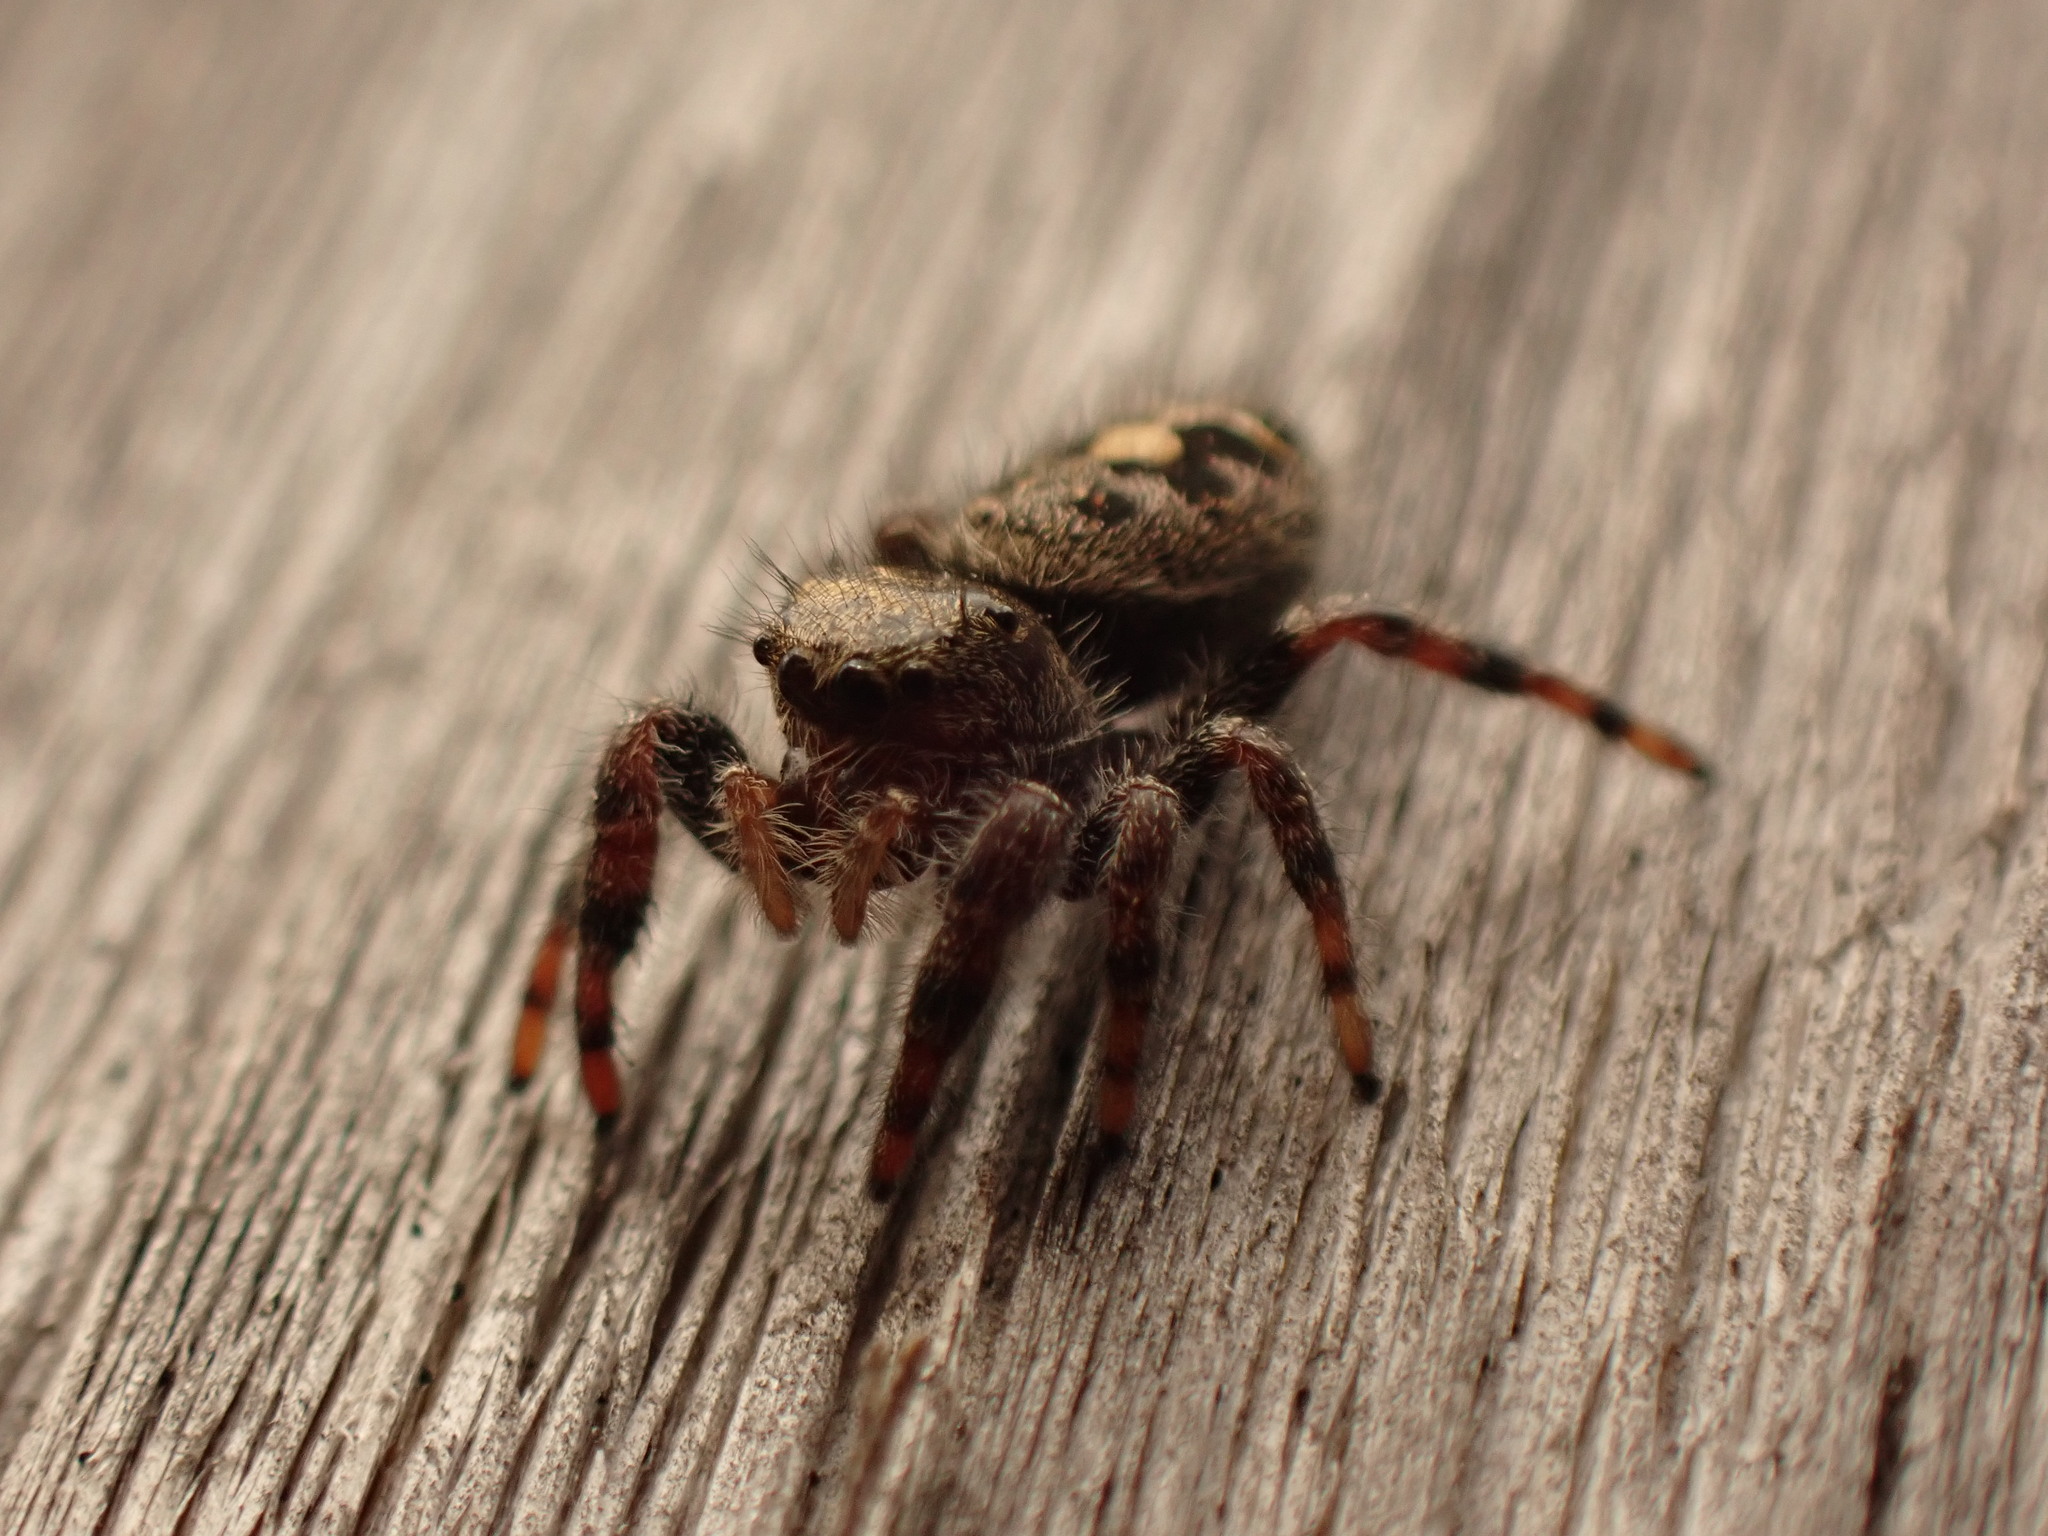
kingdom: Animalia
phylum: Arthropoda
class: Arachnida
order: Araneae
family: Salticidae
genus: Phidippus
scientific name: Phidippus audax
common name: Bold jumper
